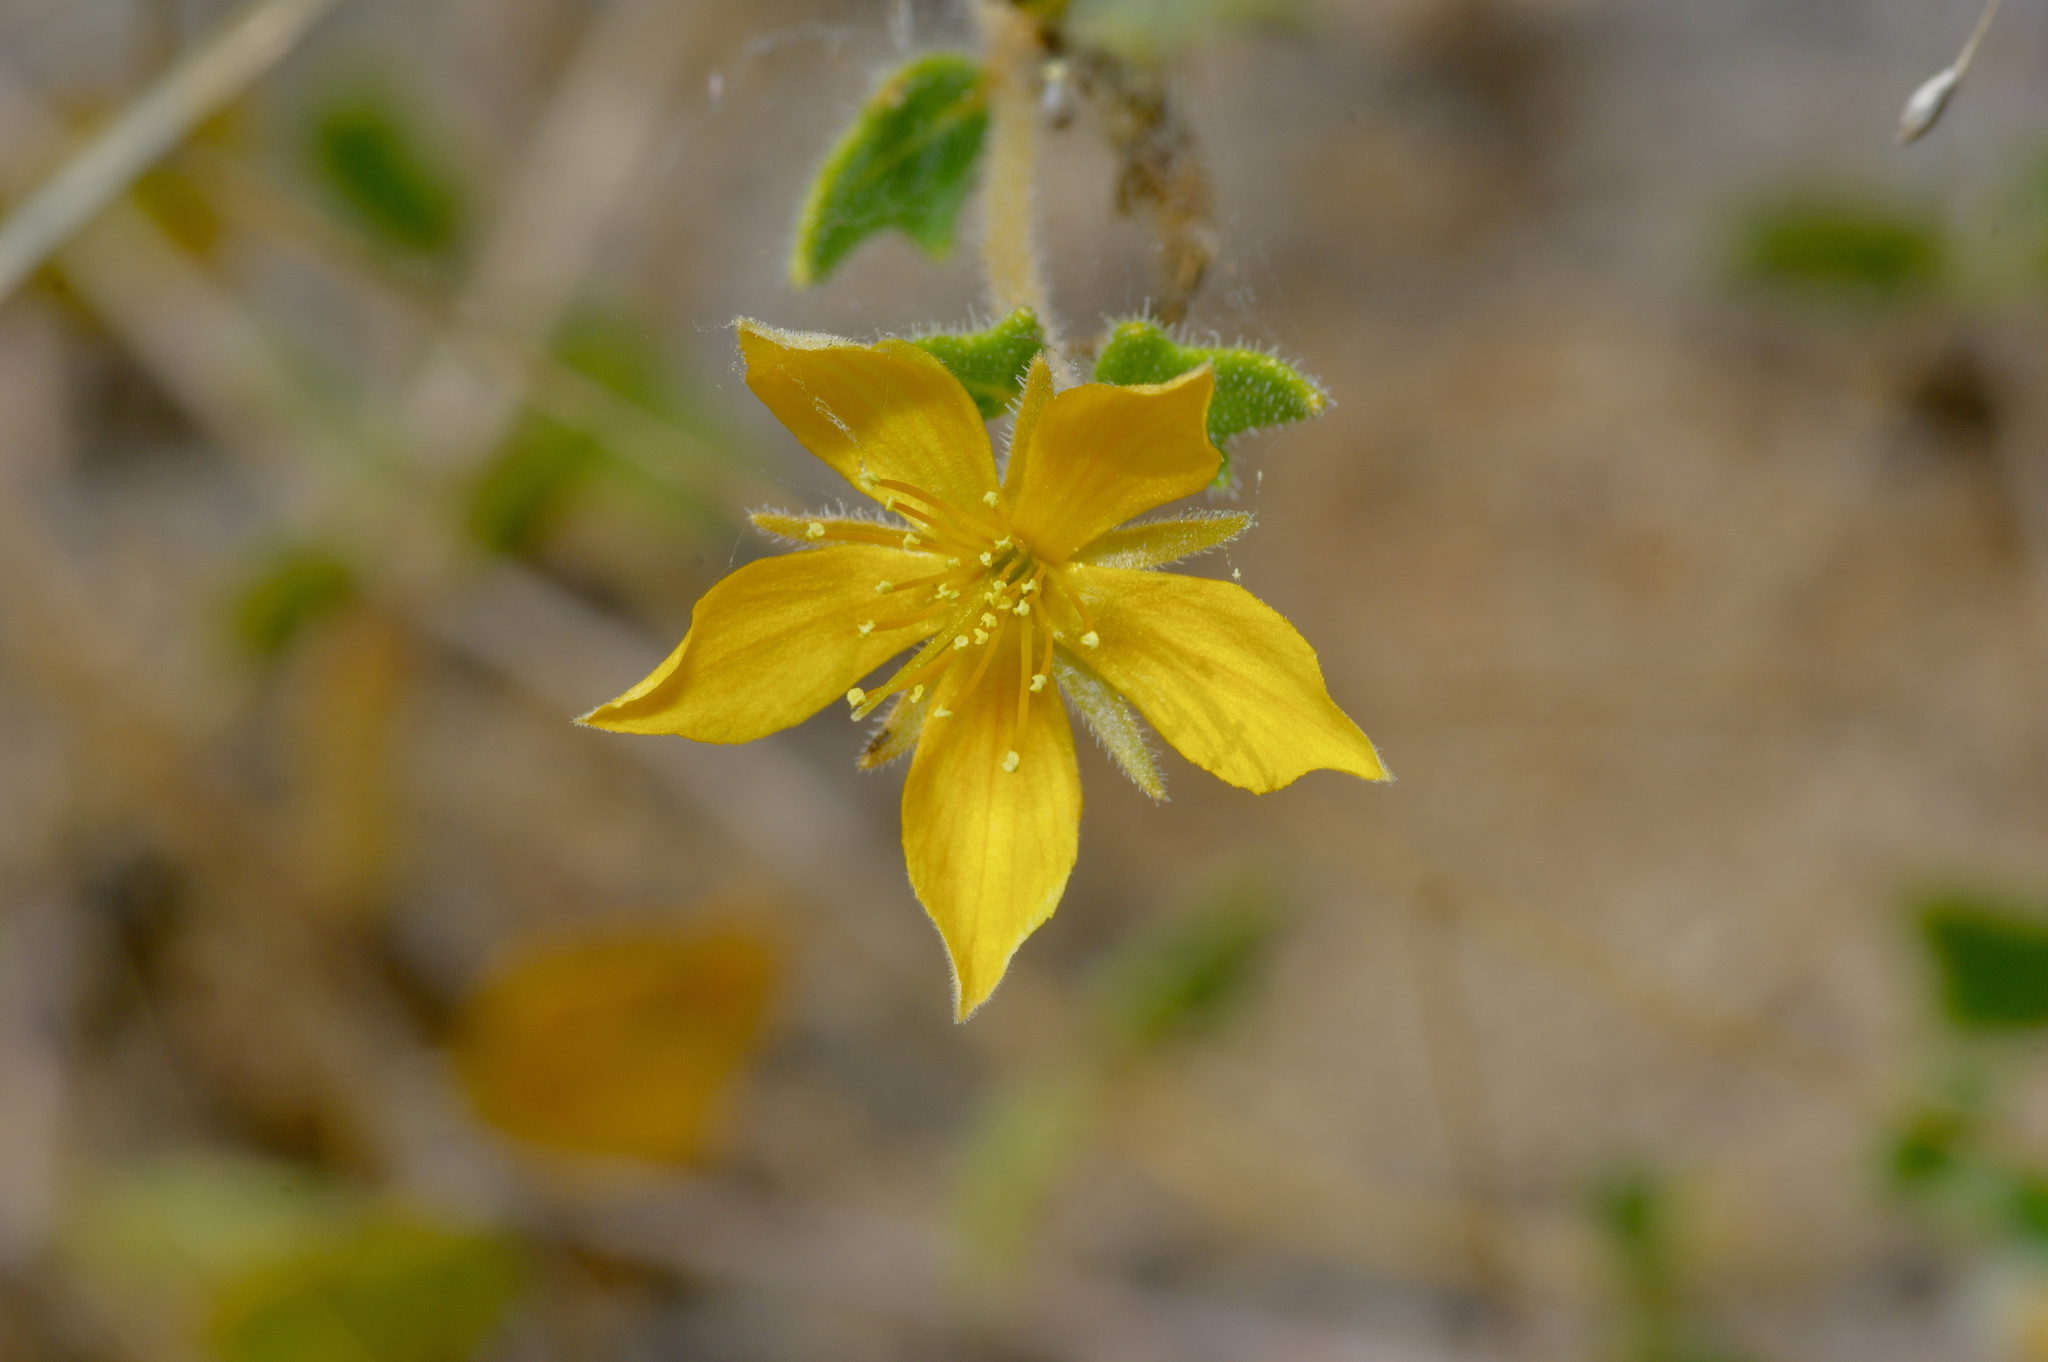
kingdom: Plantae
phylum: Tracheophyta
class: Magnoliopsida
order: Cornales
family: Loasaceae
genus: Mentzelia
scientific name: Mentzelia oligosperma
